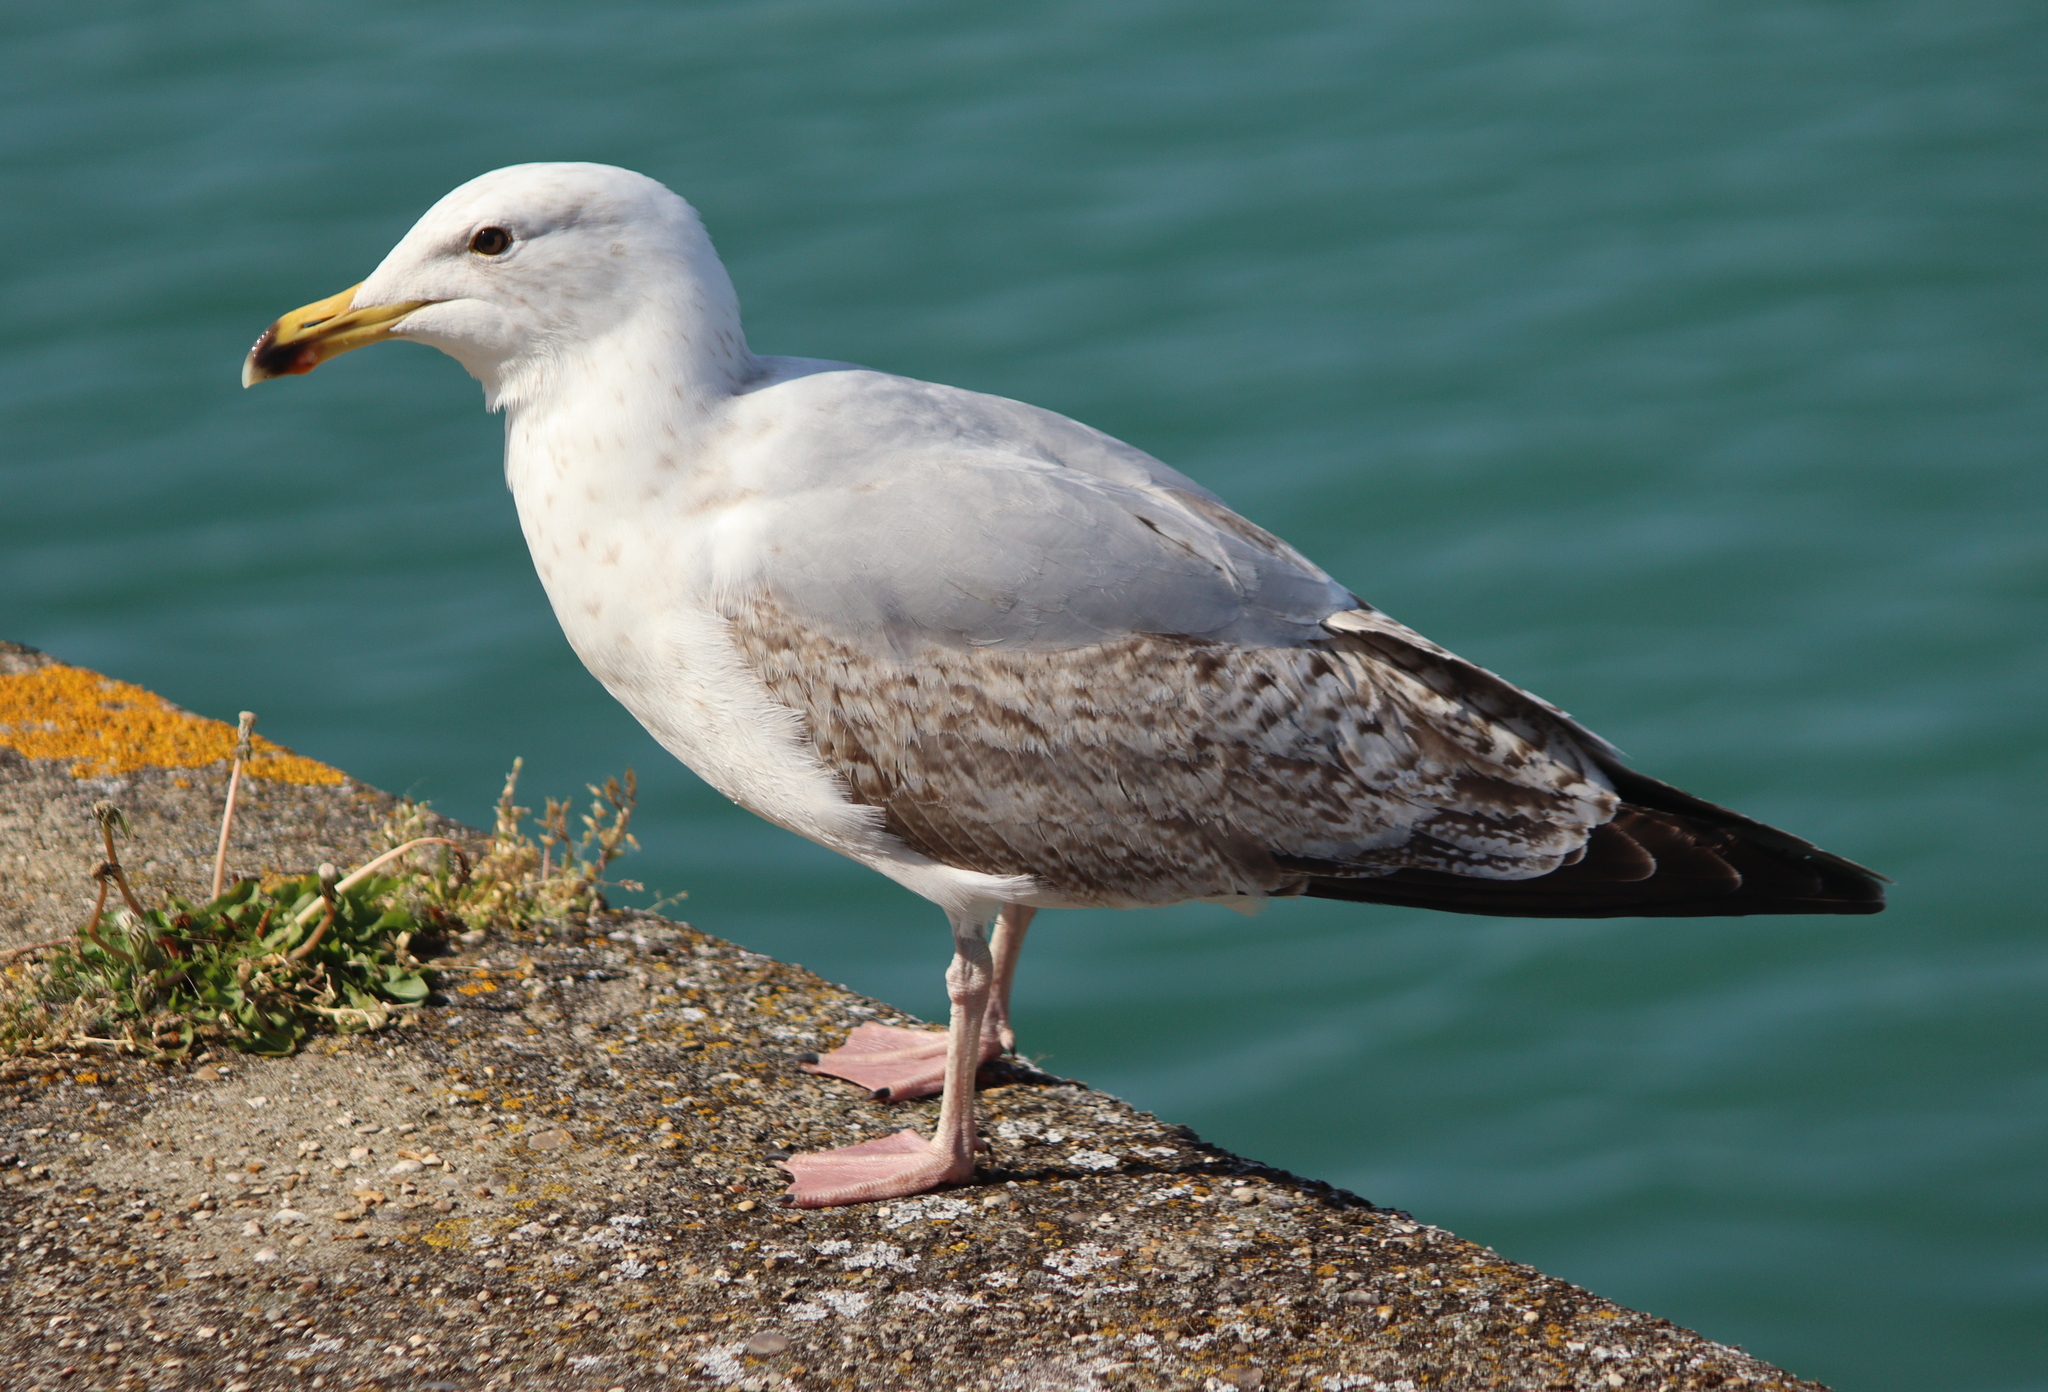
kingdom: Animalia
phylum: Chordata
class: Aves
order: Charadriiformes
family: Laridae
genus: Larus
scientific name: Larus argentatus
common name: Herring gull
